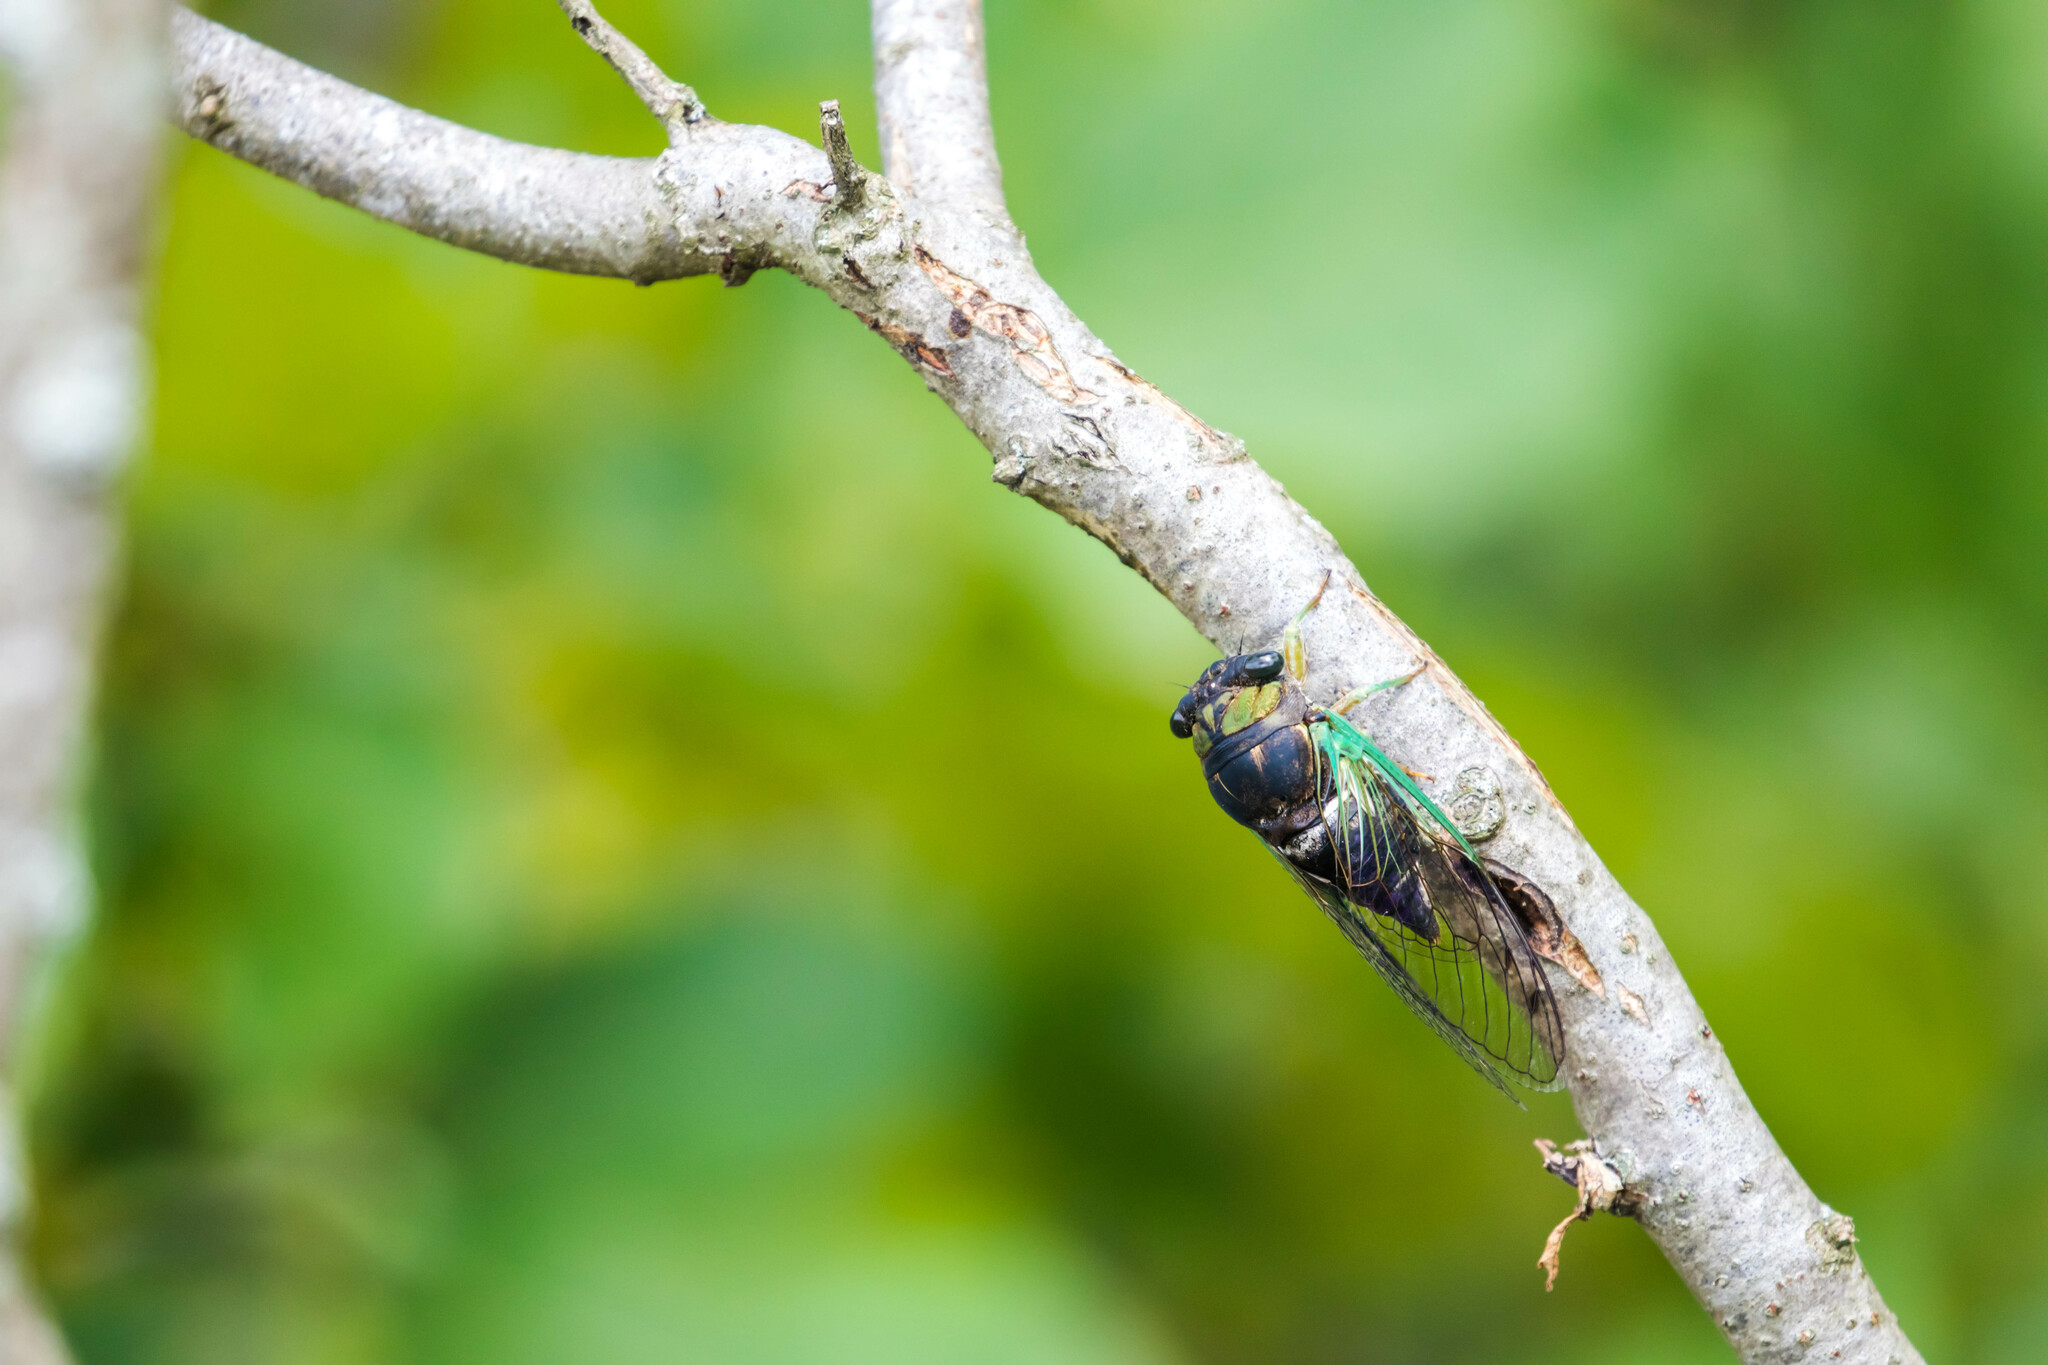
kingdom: Animalia
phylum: Arthropoda
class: Insecta
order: Hemiptera
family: Cicadidae
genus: Neotibicen
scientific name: Neotibicen tibicen
